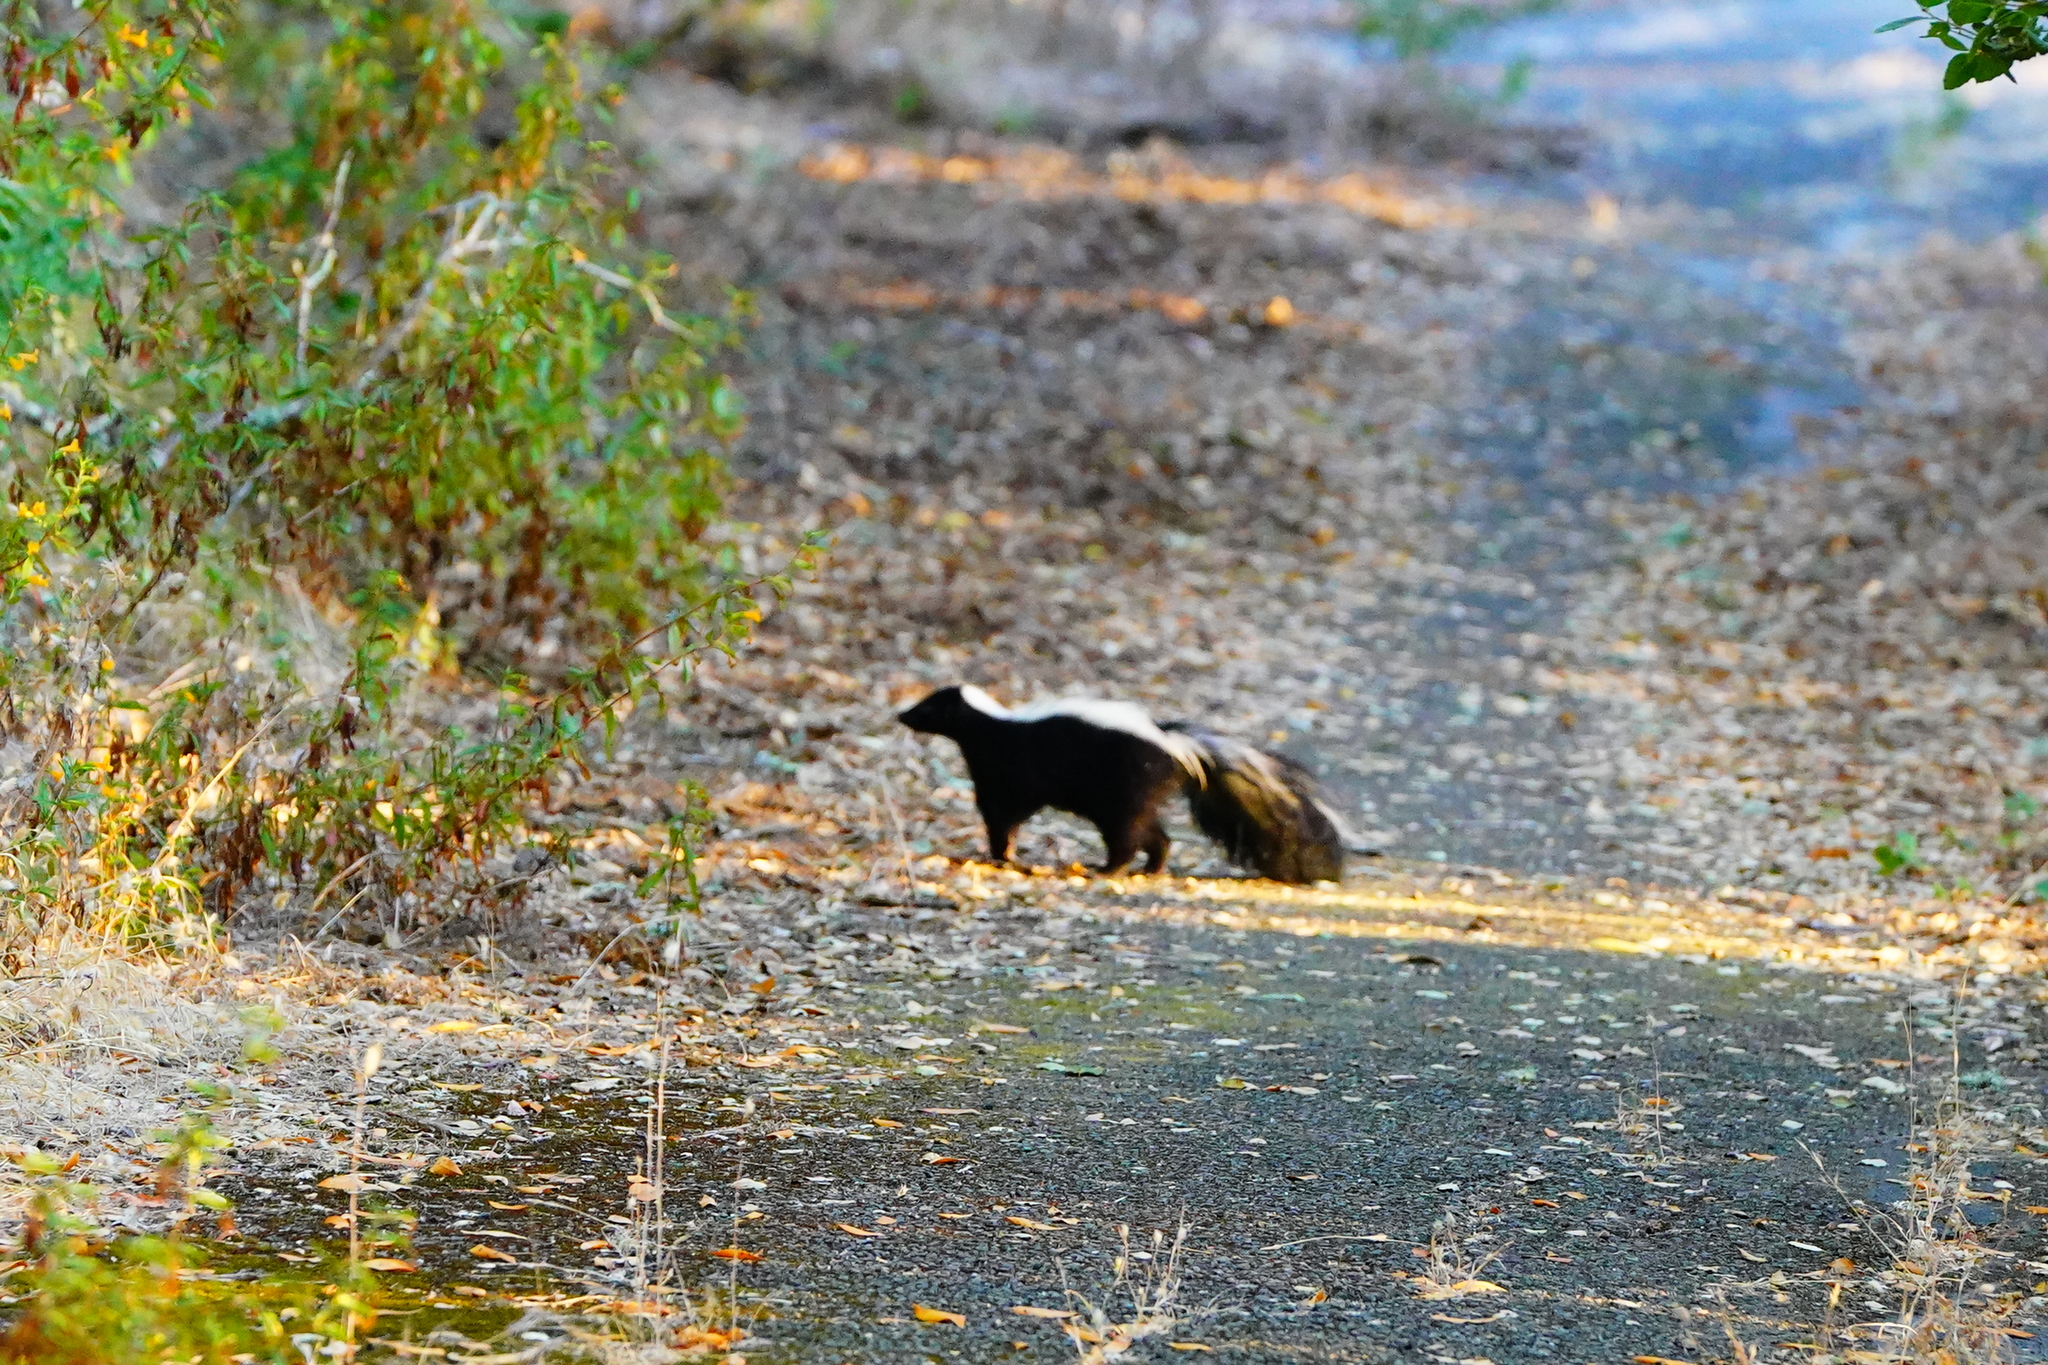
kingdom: Animalia
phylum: Chordata
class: Mammalia
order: Carnivora
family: Mephitidae
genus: Mephitis
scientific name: Mephitis mephitis
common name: Striped skunk
